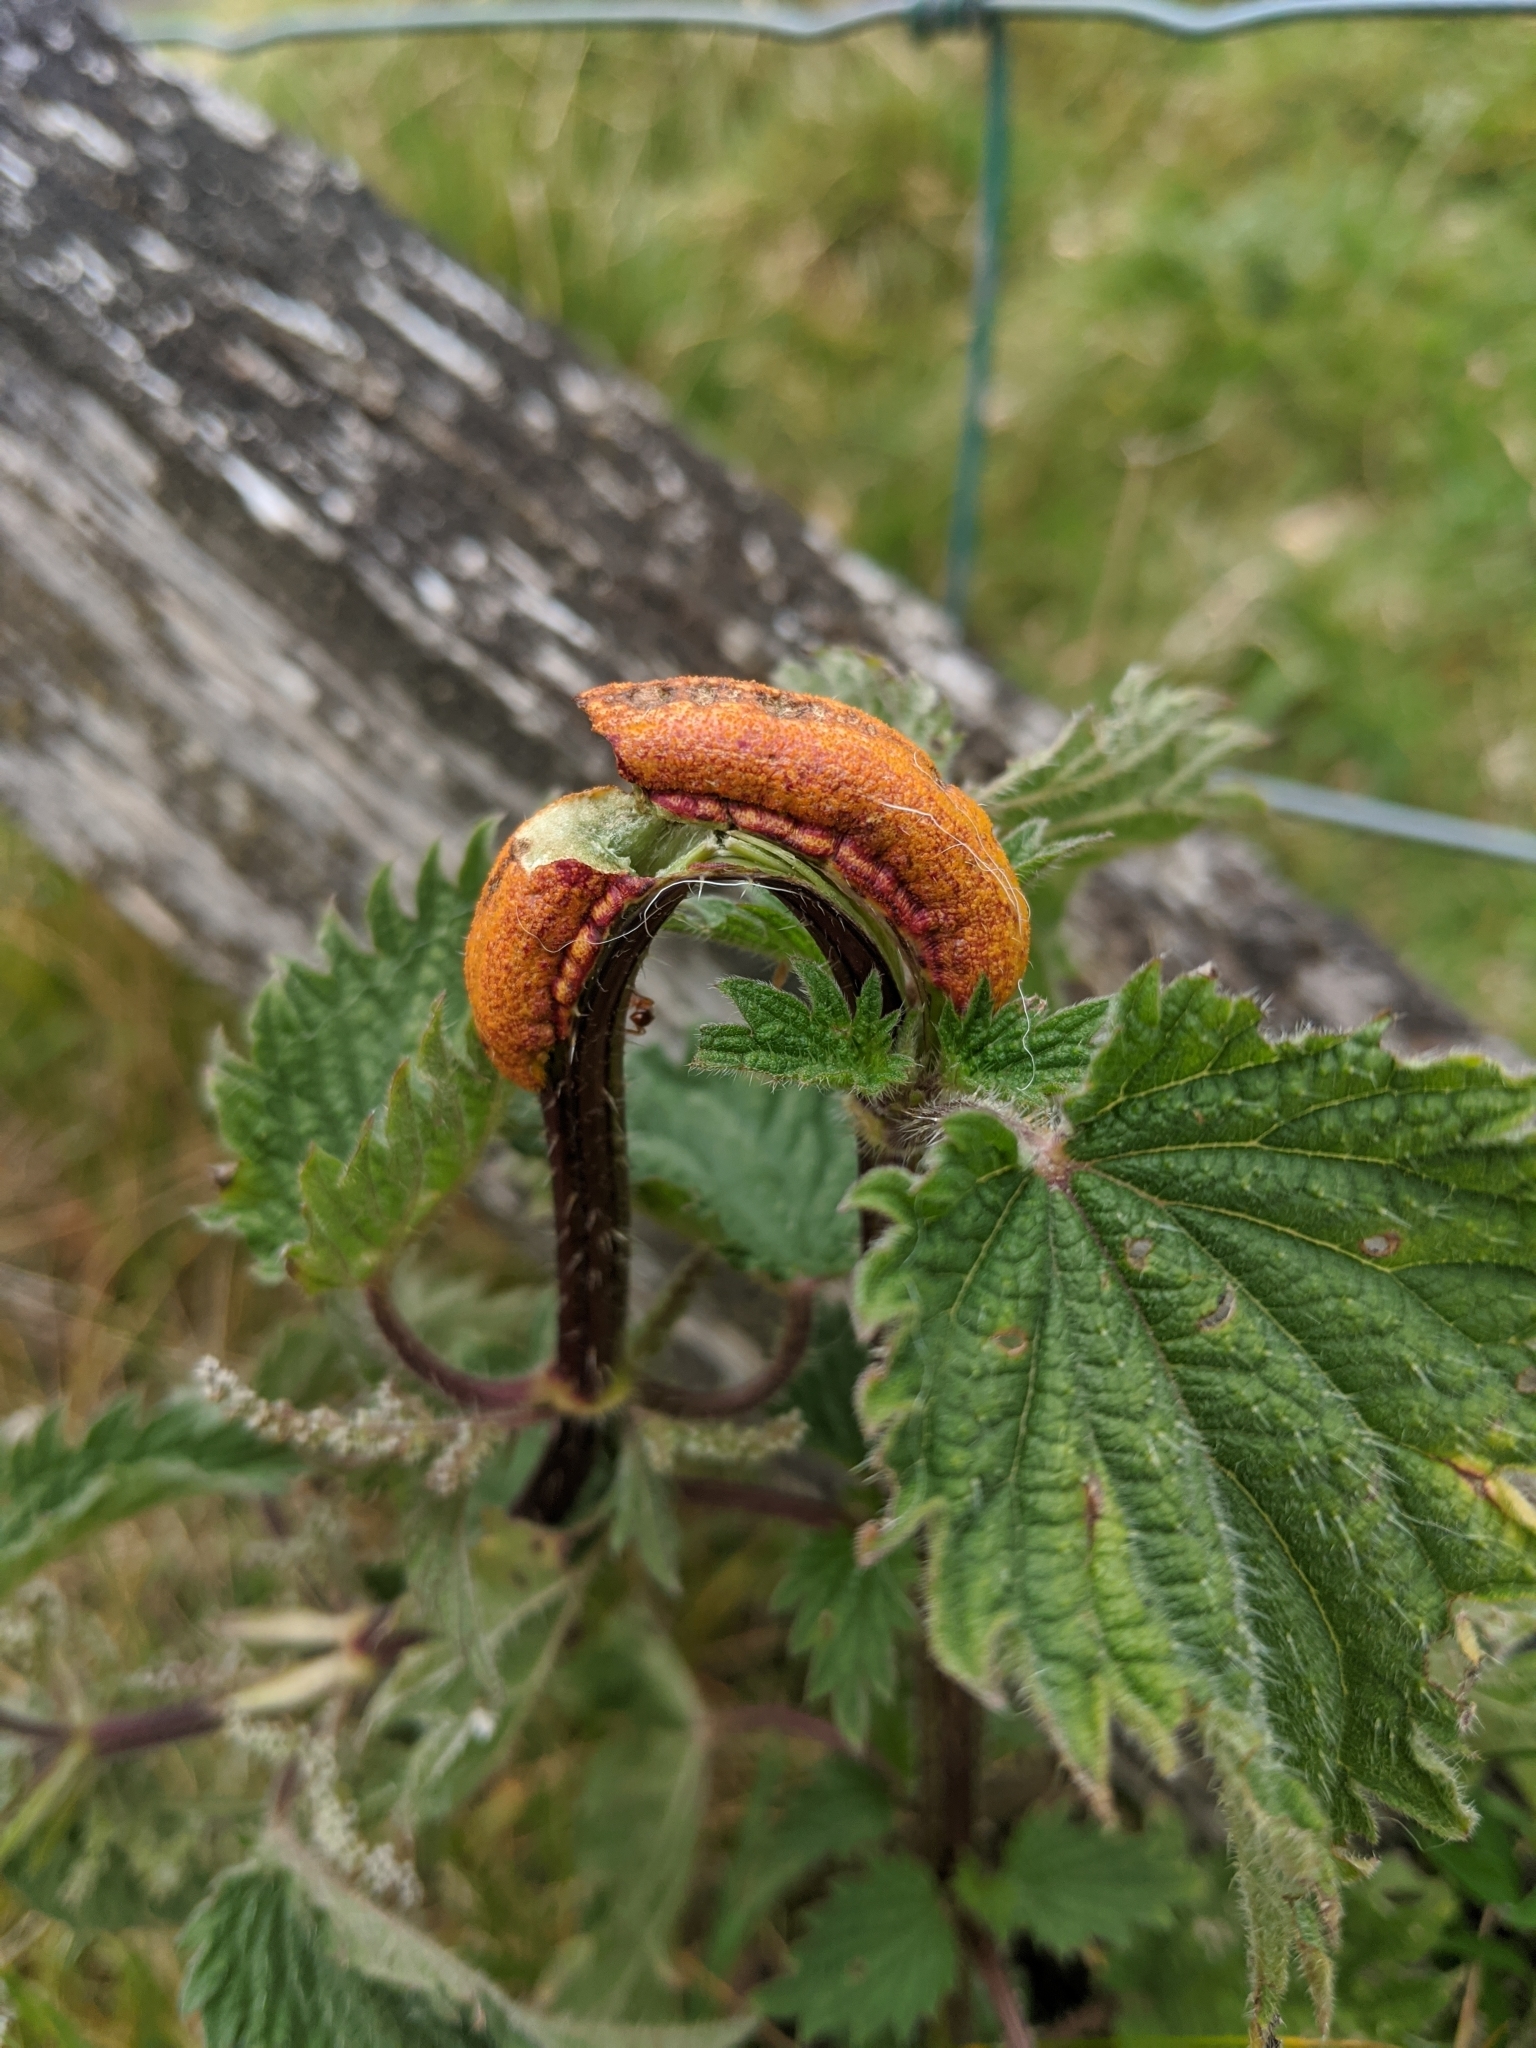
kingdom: Fungi
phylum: Basidiomycota
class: Pucciniomycetes
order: Pucciniales
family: Pucciniaceae
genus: Puccinia
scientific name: Puccinia urticata
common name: Nettle clustercup rust fungus
